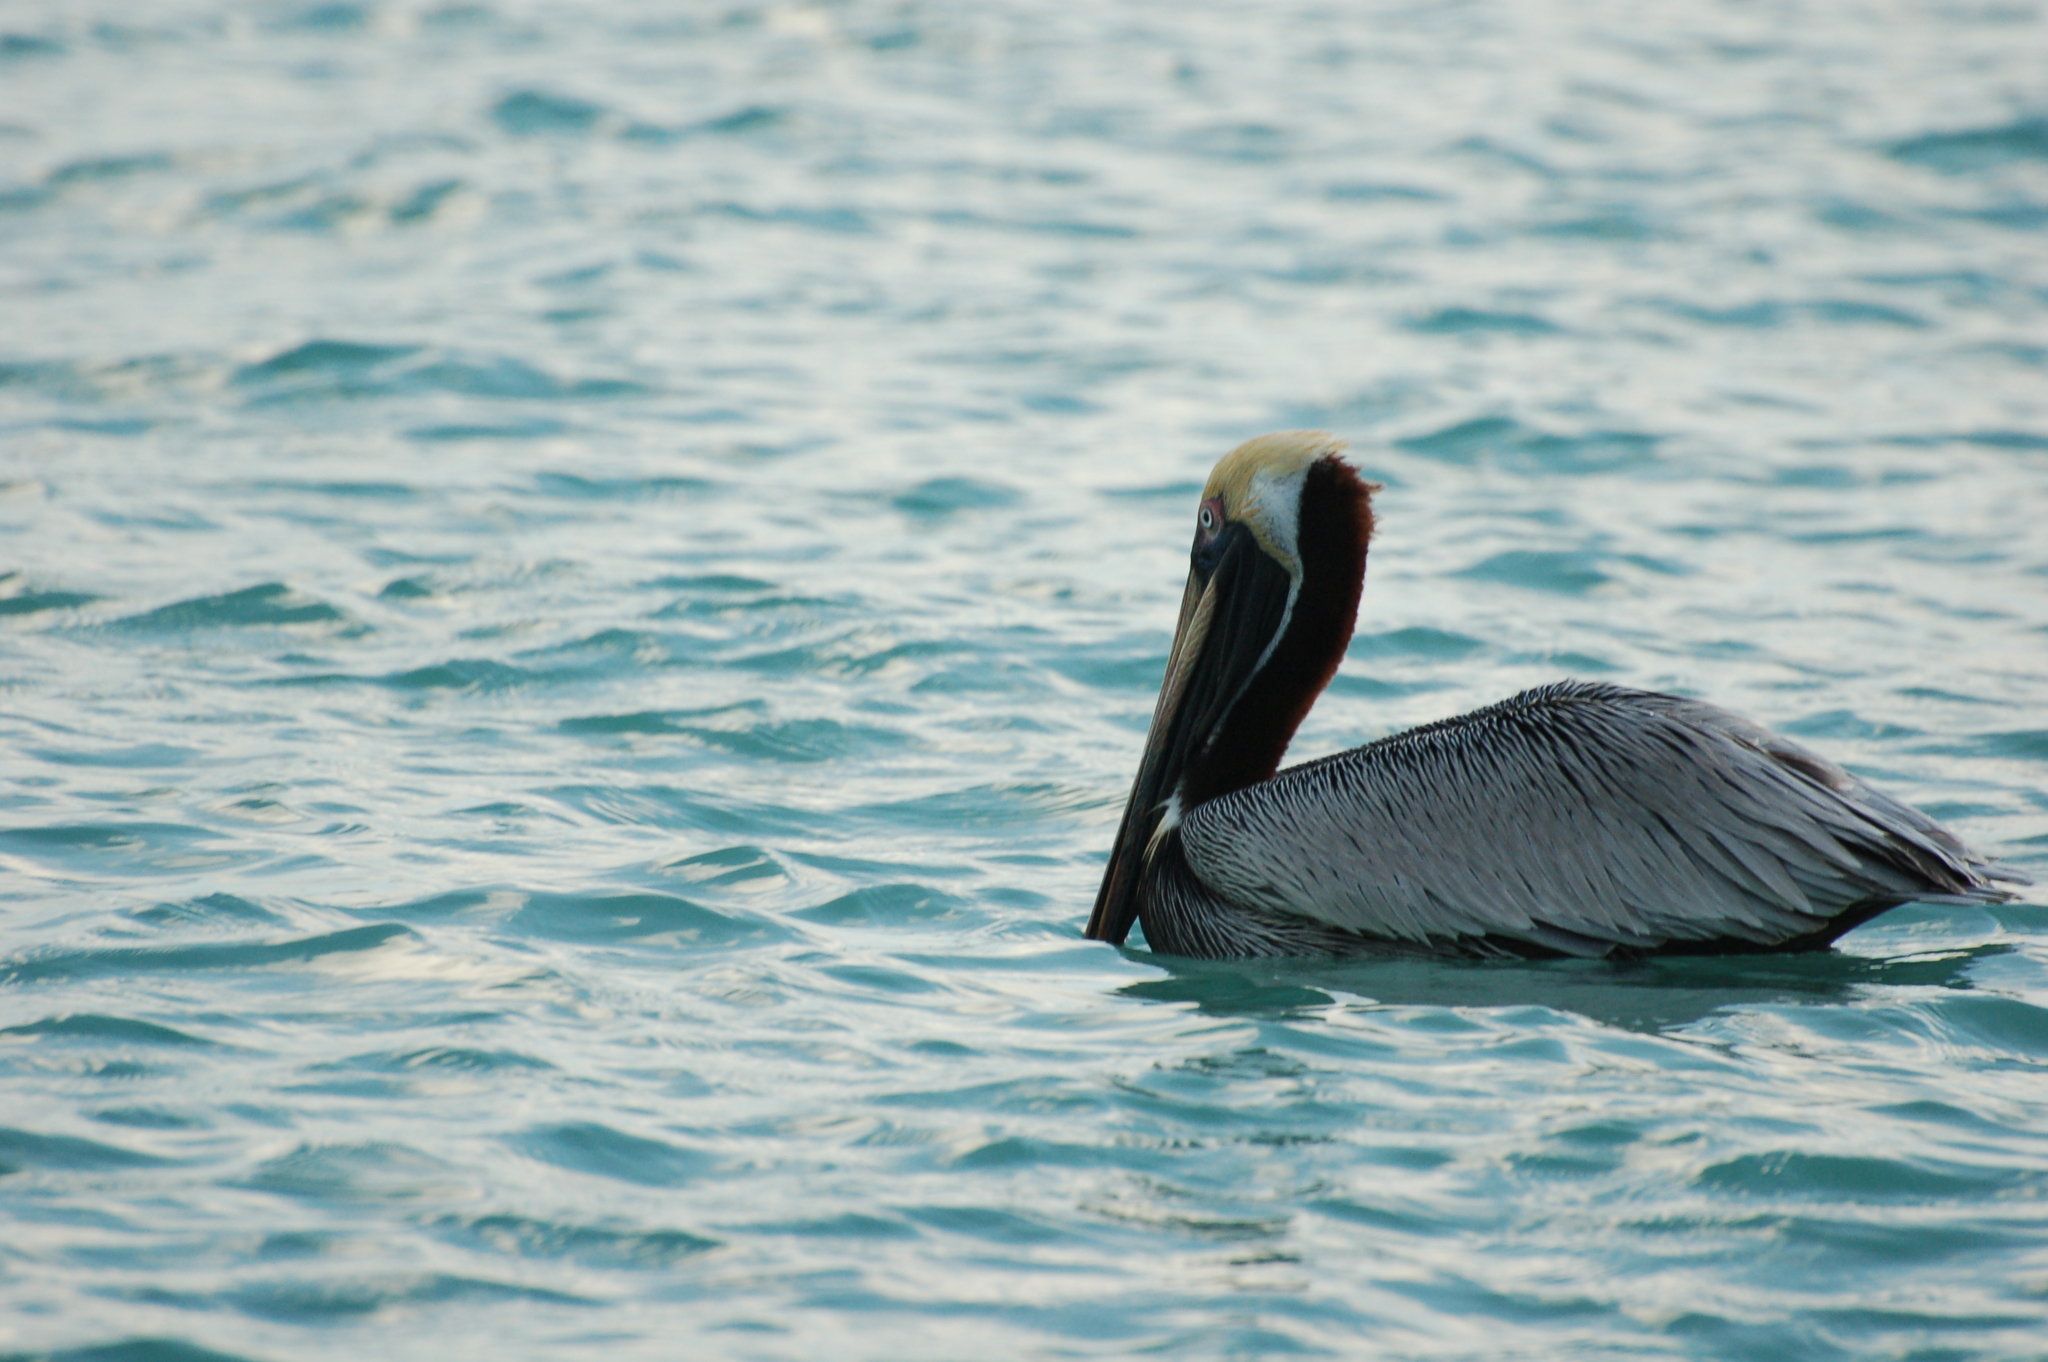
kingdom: Animalia
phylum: Chordata
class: Aves
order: Pelecaniformes
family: Pelecanidae
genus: Pelecanus
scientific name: Pelecanus occidentalis
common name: Brown pelican
